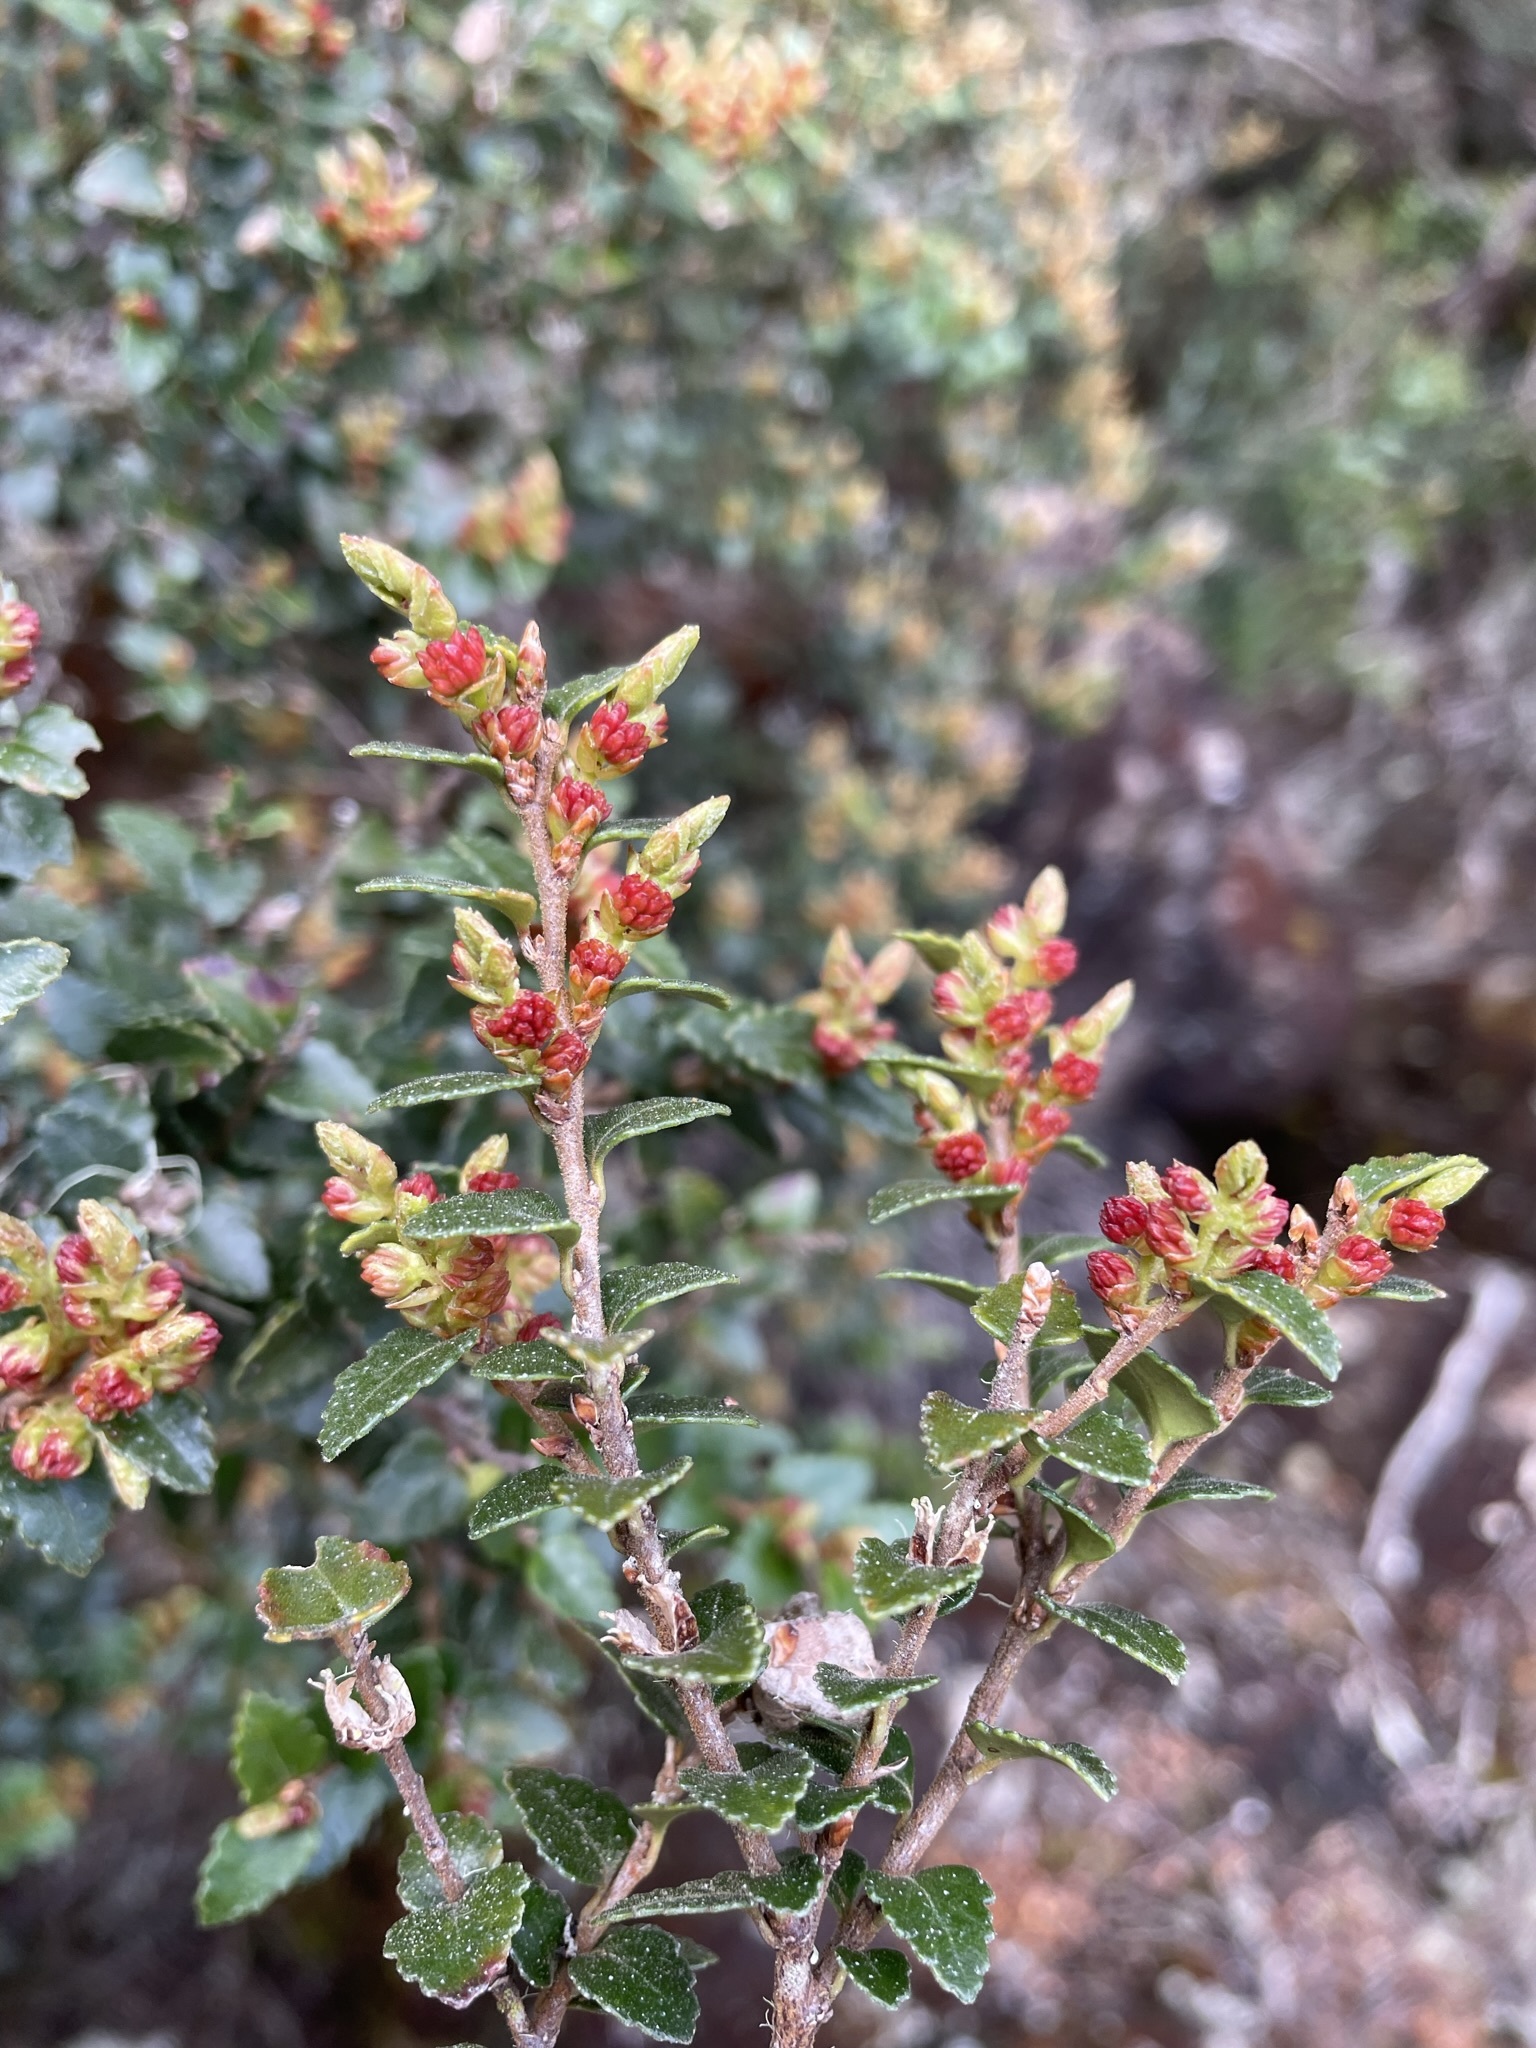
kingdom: Plantae
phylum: Tracheophyta
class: Magnoliopsida
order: Fagales
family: Nothofagaceae
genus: Nothofagus
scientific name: Nothofagus cunninghamii
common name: Myrtle beech
